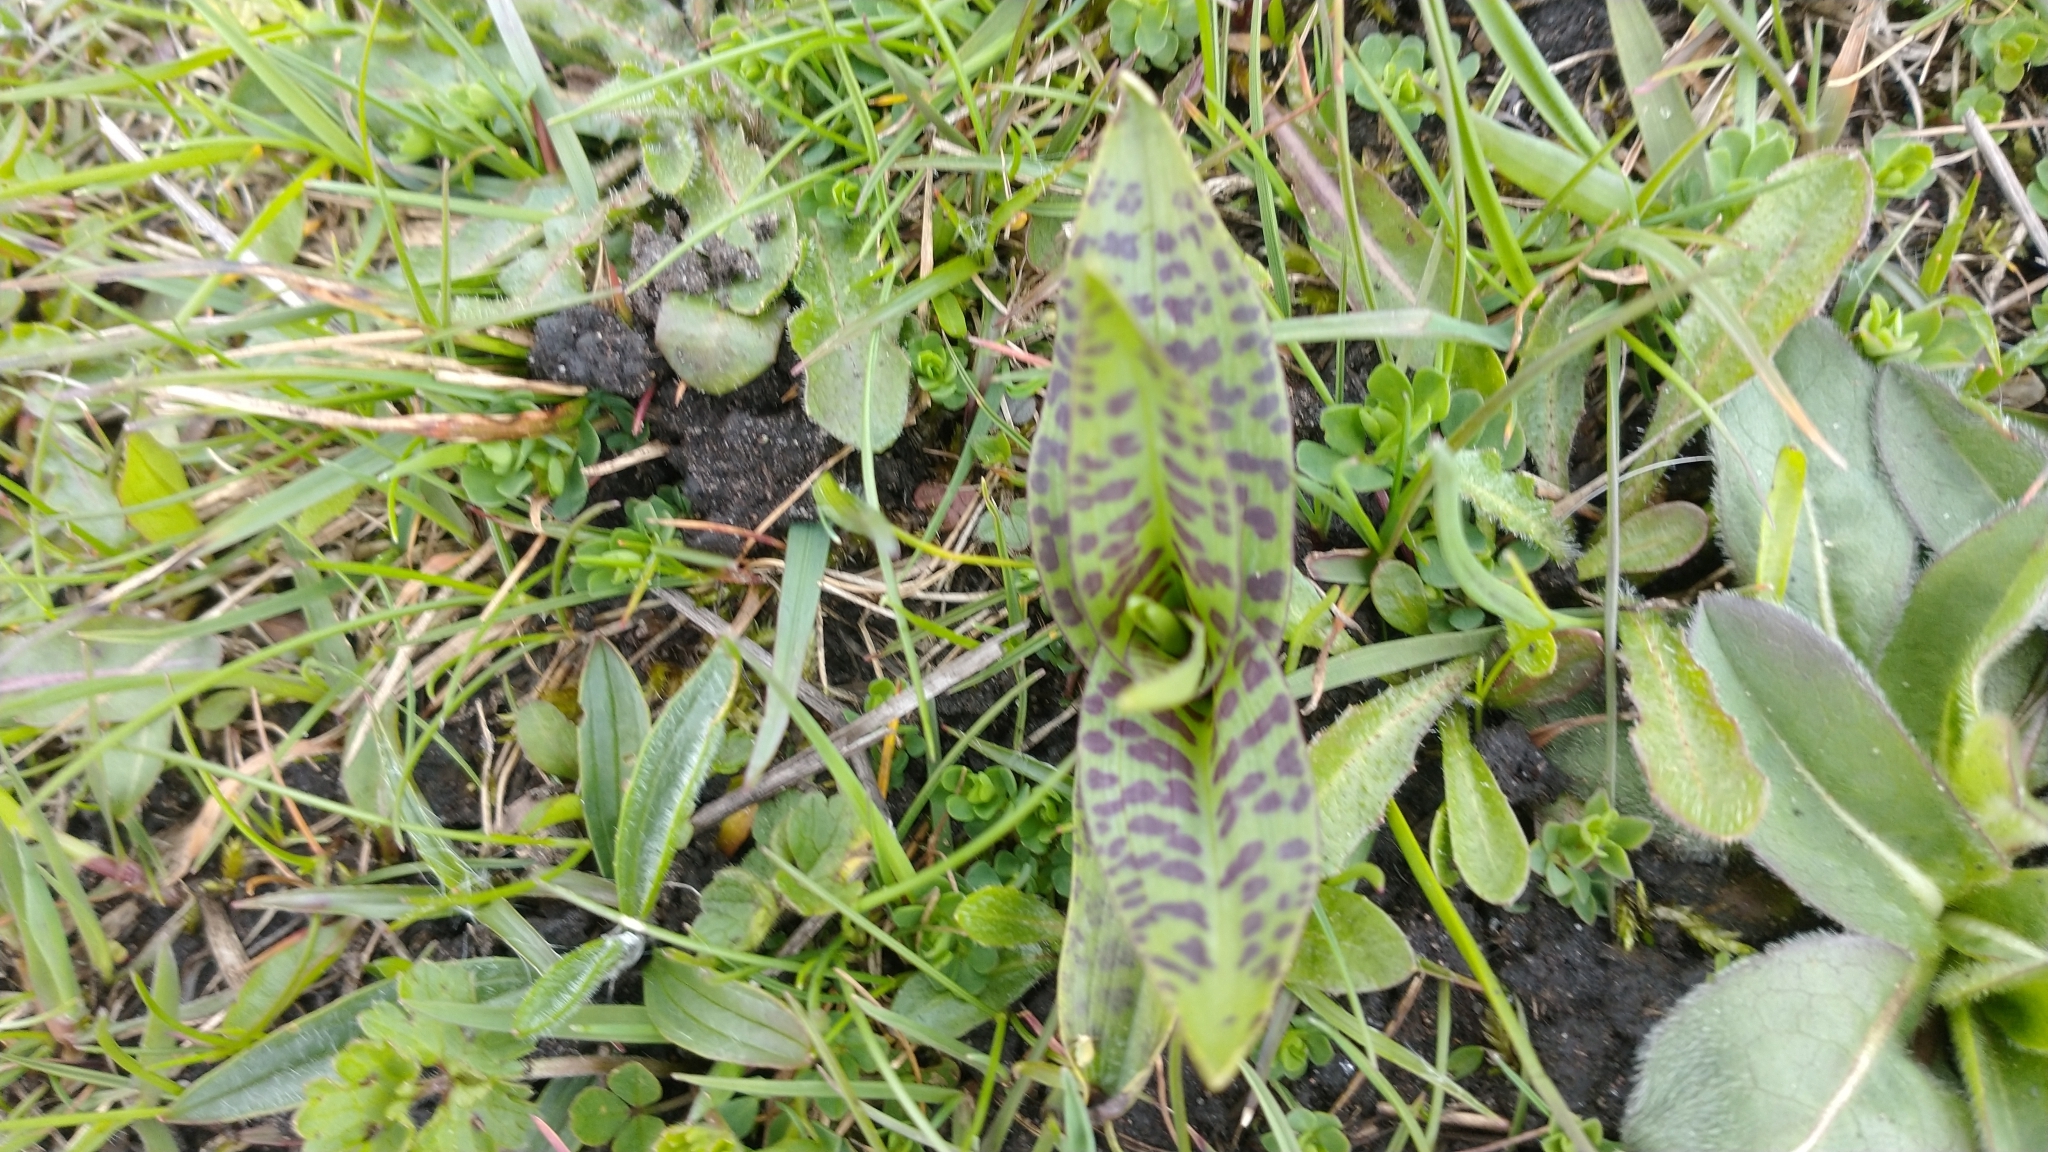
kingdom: Plantae
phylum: Tracheophyta
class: Liliopsida
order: Asparagales
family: Orchidaceae
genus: Dactylorhiza
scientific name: Dactylorhiza maculata
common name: Heath spotted-orchid
